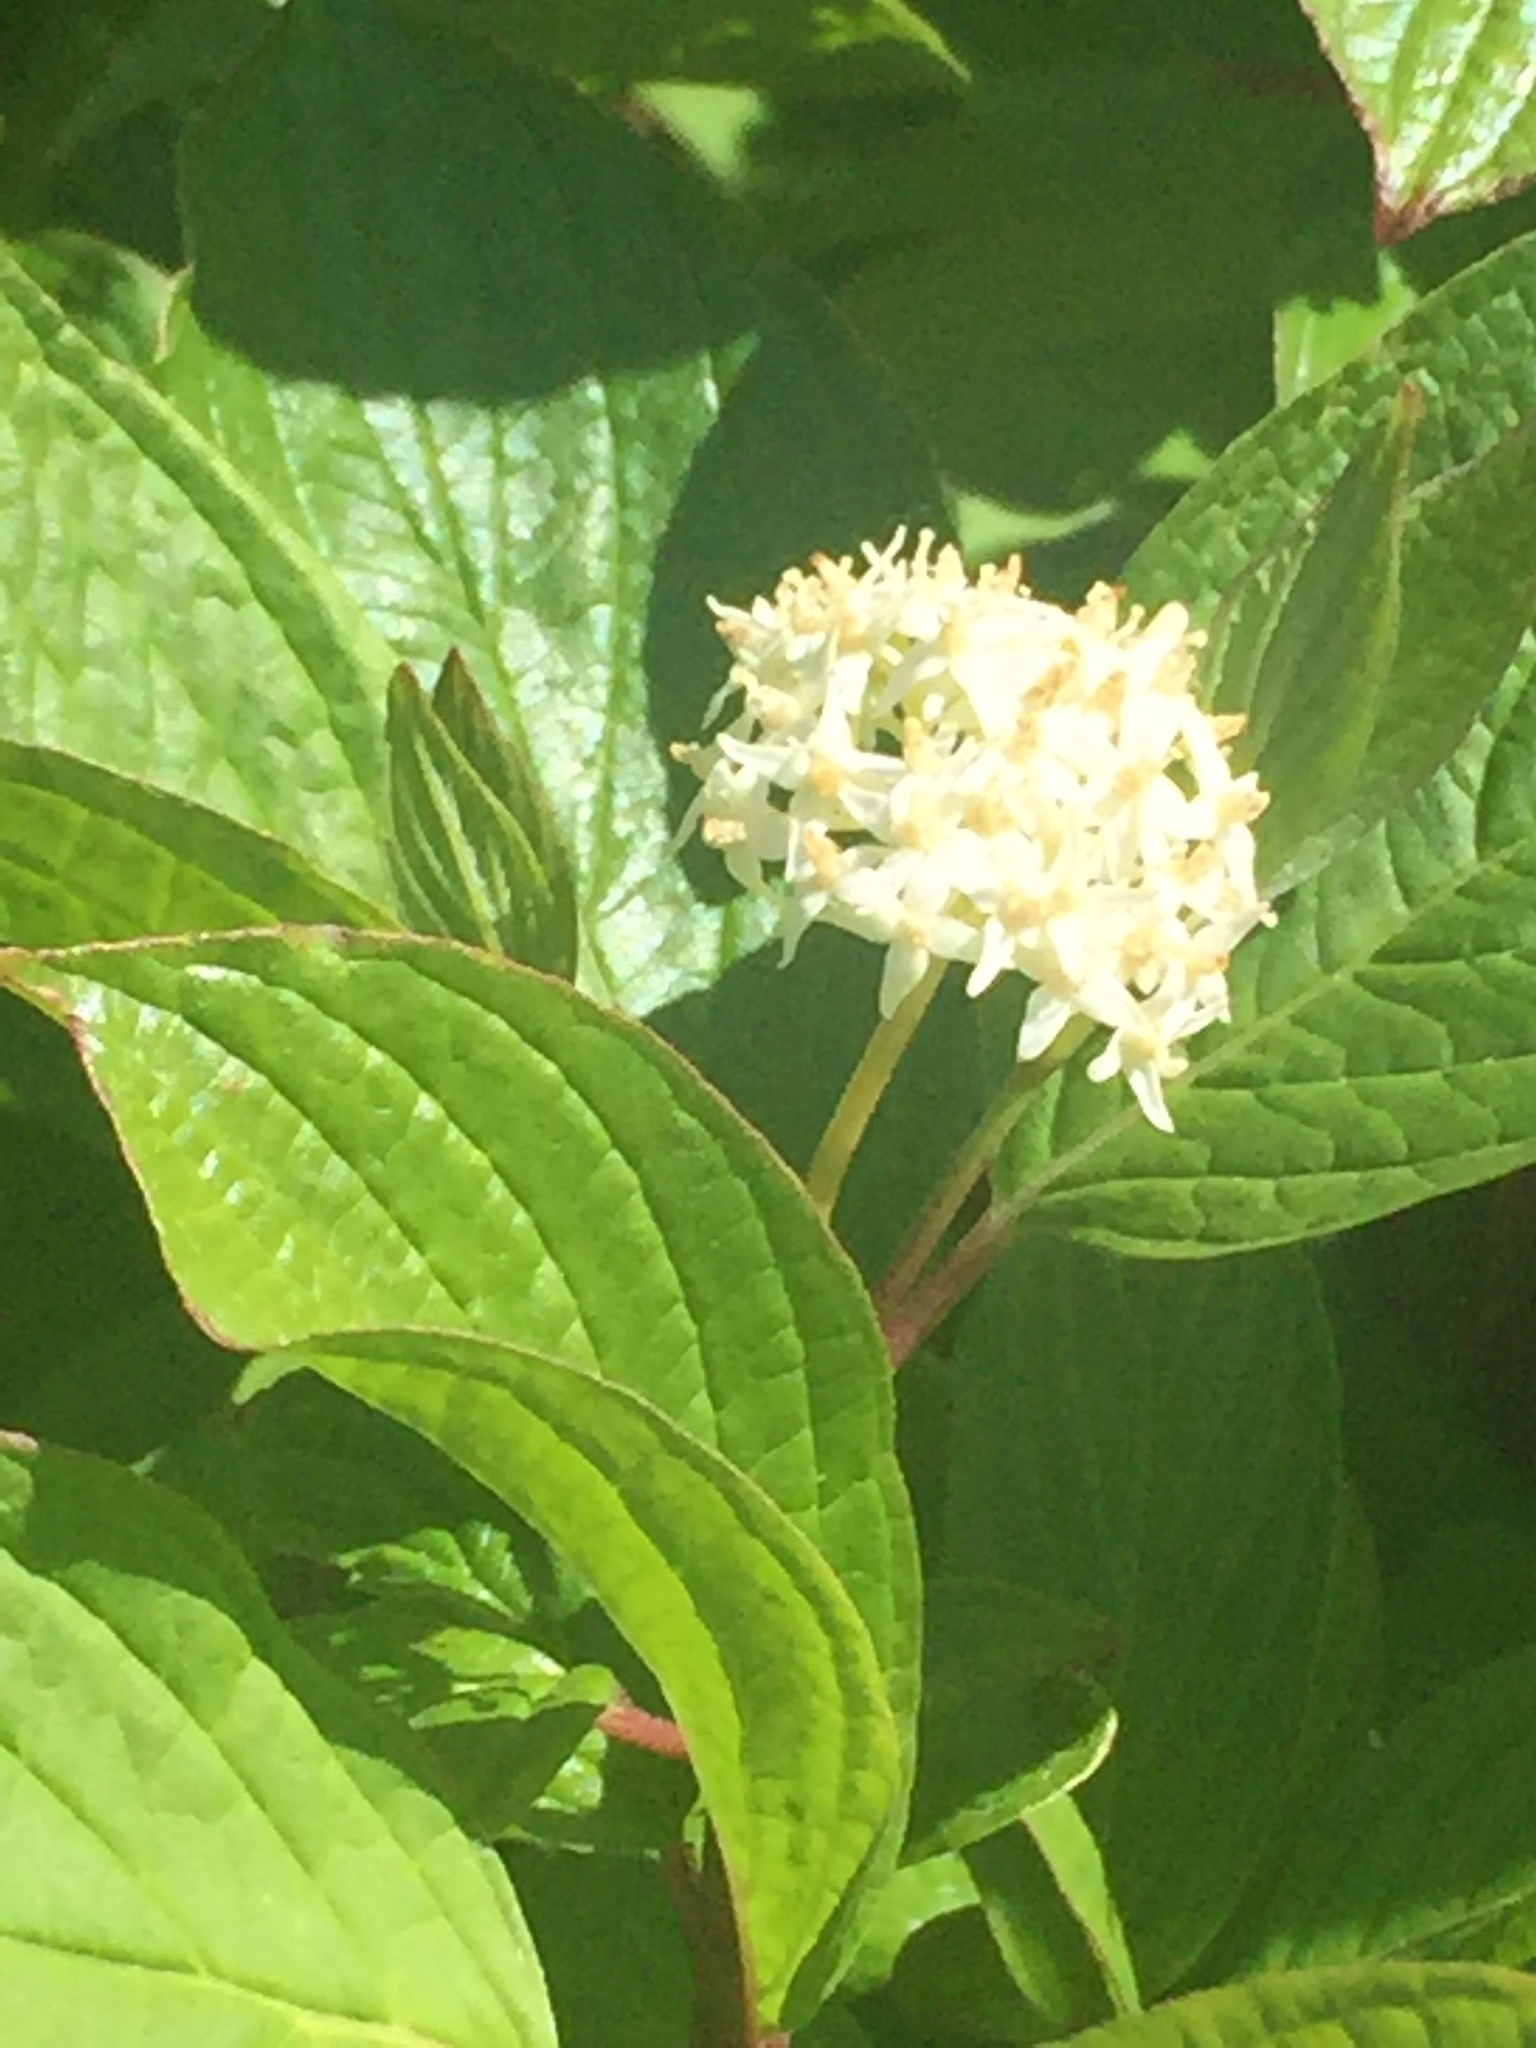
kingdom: Plantae
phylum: Tracheophyta
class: Magnoliopsida
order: Cornales
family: Cornaceae
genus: Cornus
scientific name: Cornus sanguinea
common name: Dogwood
